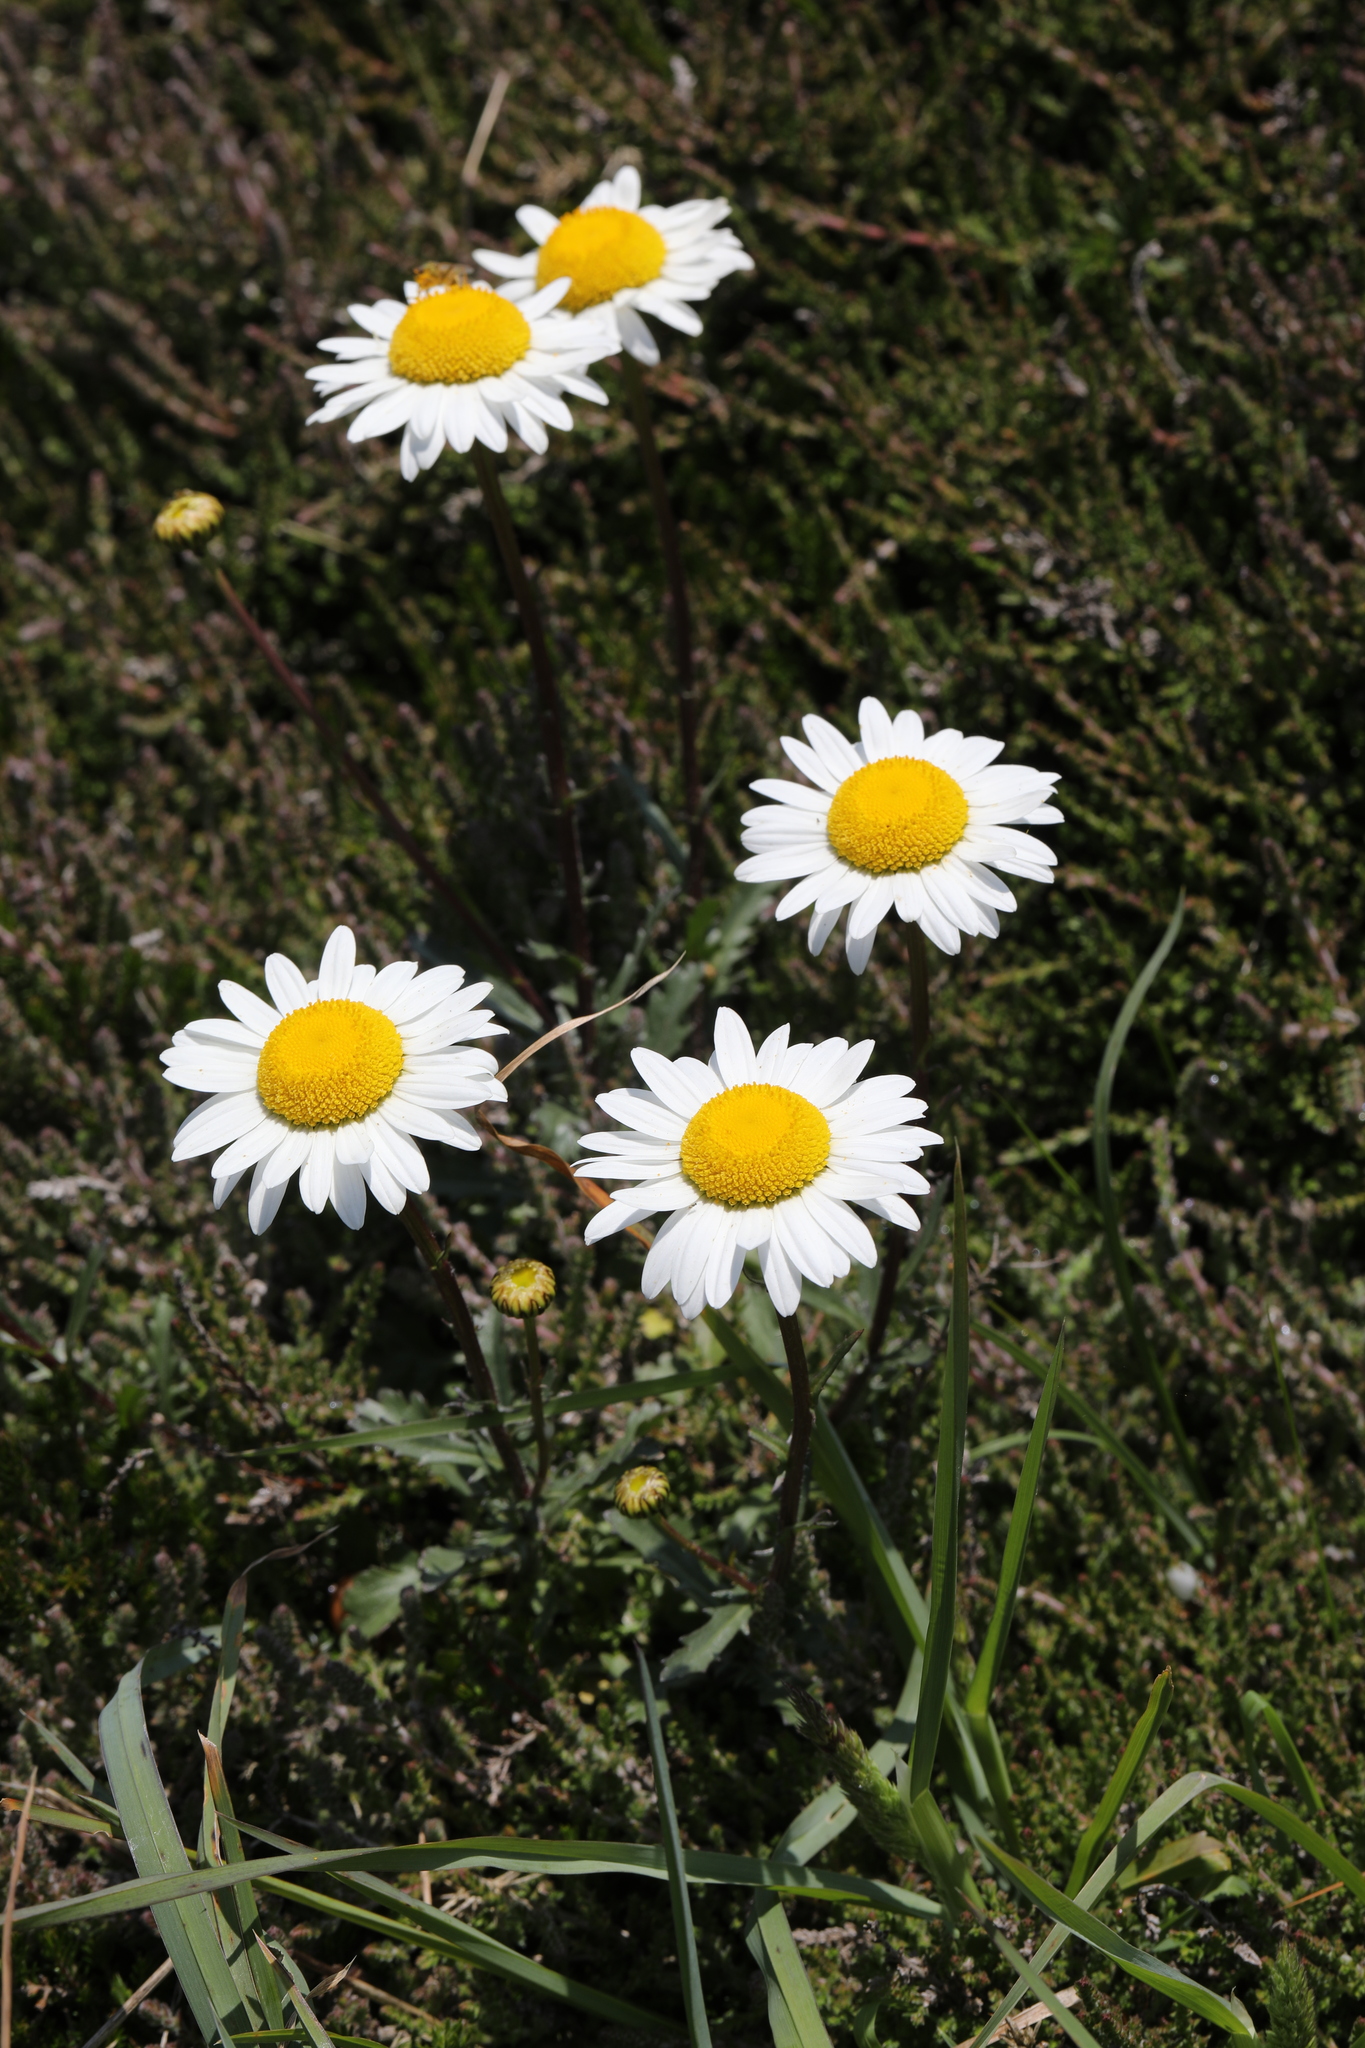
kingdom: Plantae
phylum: Tracheophyta
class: Magnoliopsida
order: Asterales
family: Asteraceae
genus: Leucanthemum
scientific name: Leucanthemum vulgare
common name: Oxeye daisy
